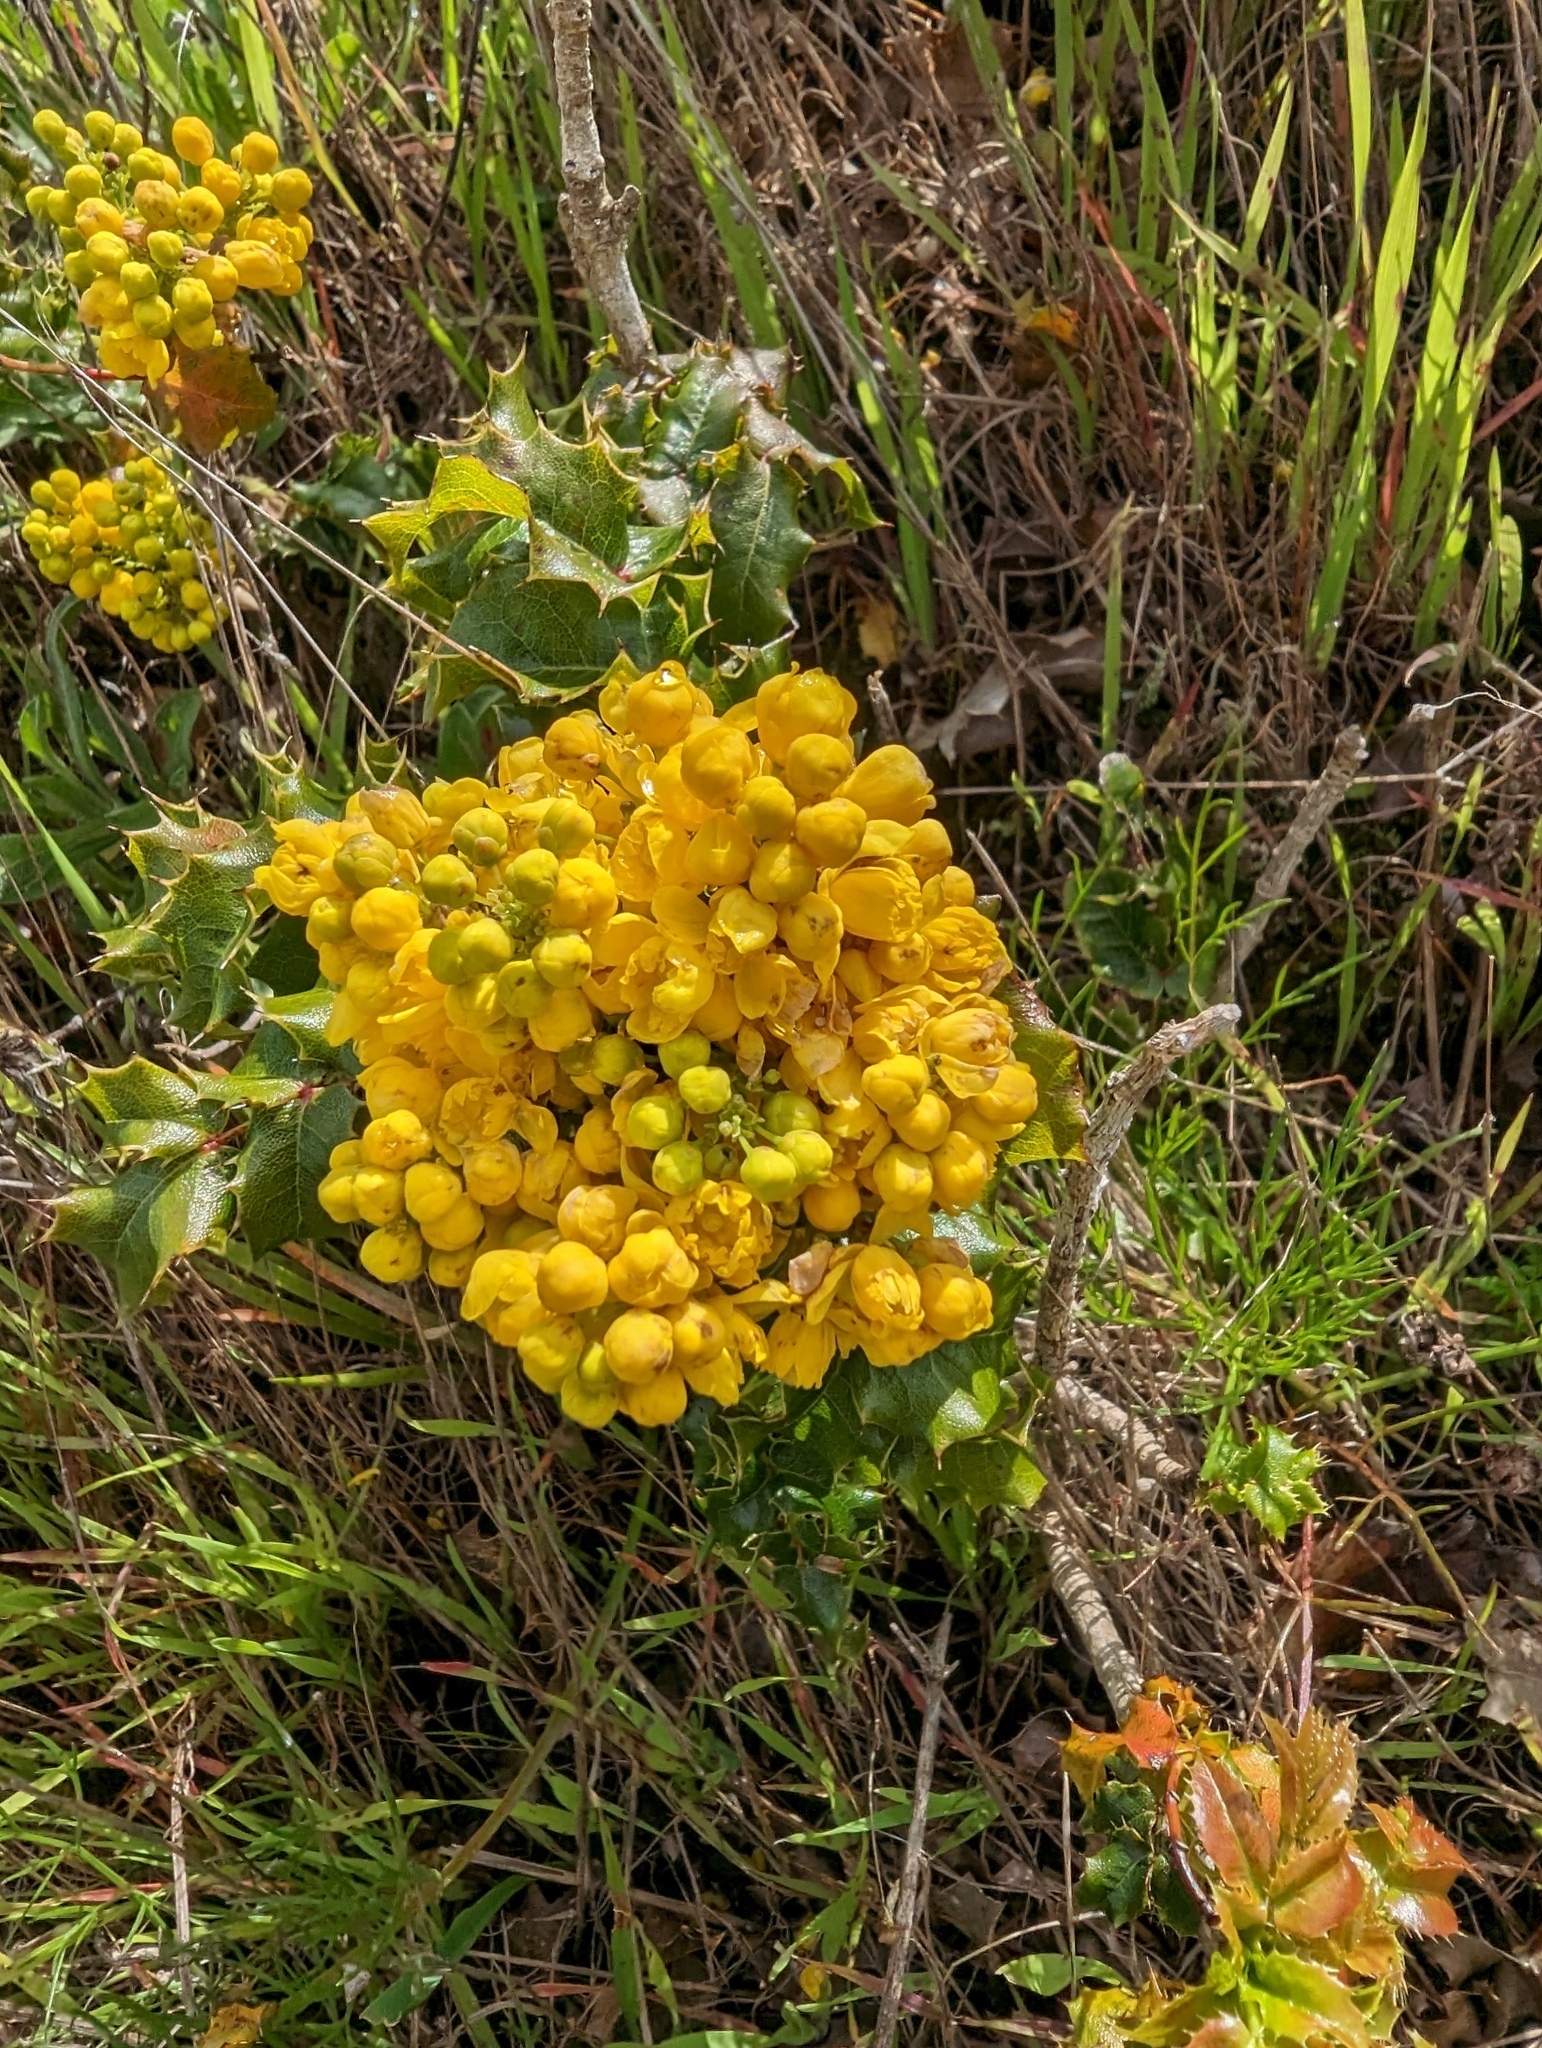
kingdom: Plantae
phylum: Tracheophyta
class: Magnoliopsida
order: Ranunculales
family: Berberidaceae
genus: Mahonia
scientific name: Mahonia
